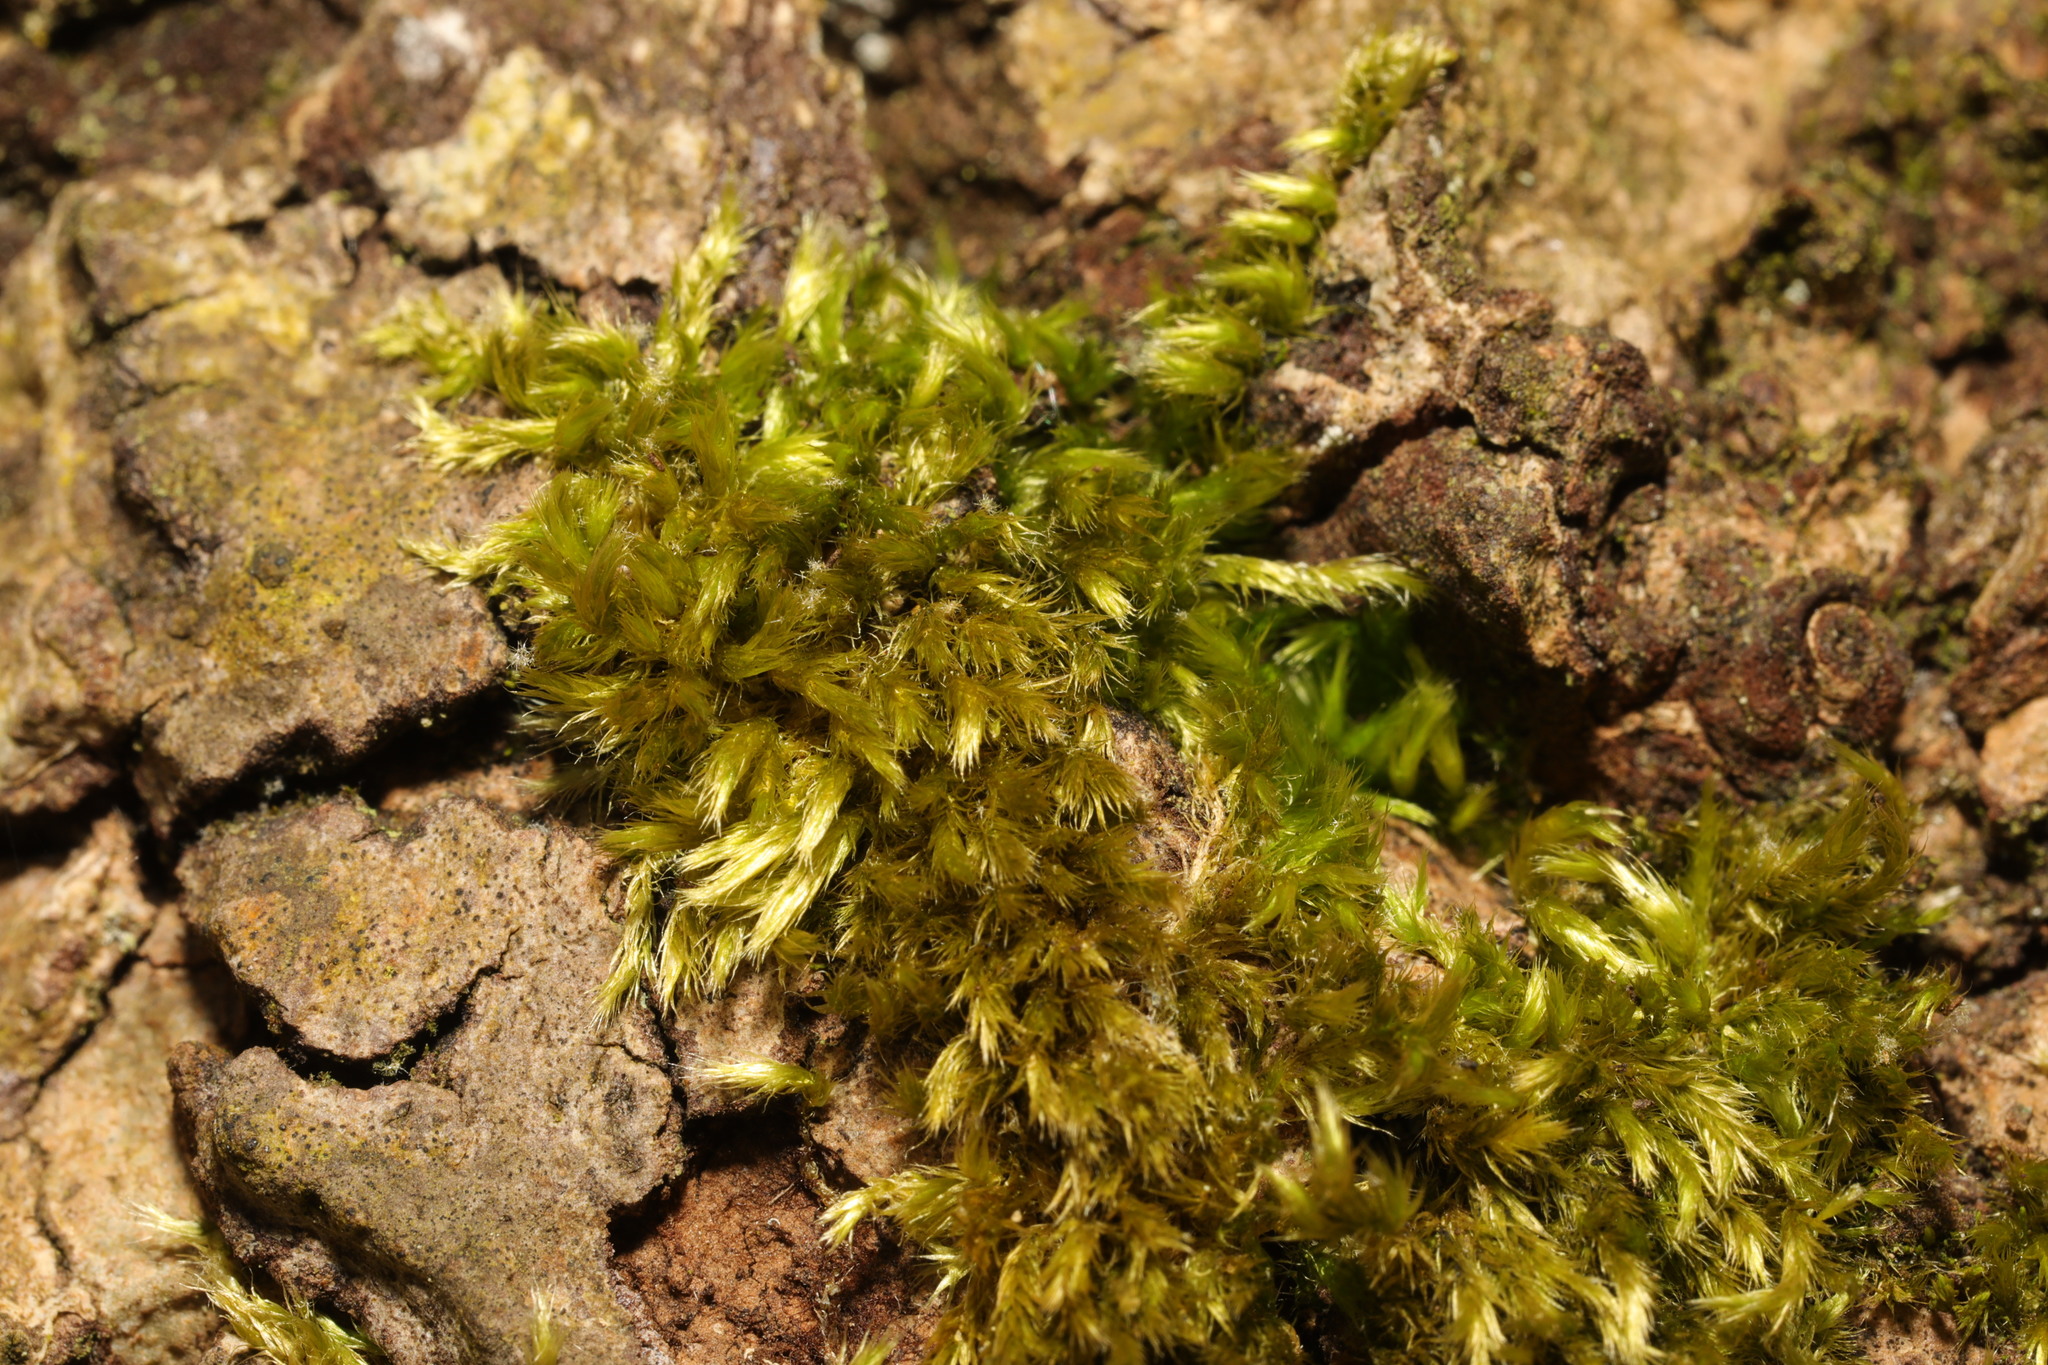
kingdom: Plantae
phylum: Bryophyta
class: Bryopsida
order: Hypnales
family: Brachytheciaceae
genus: Homalothecium
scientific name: Homalothecium sericeum
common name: Silky wall feather-moss
